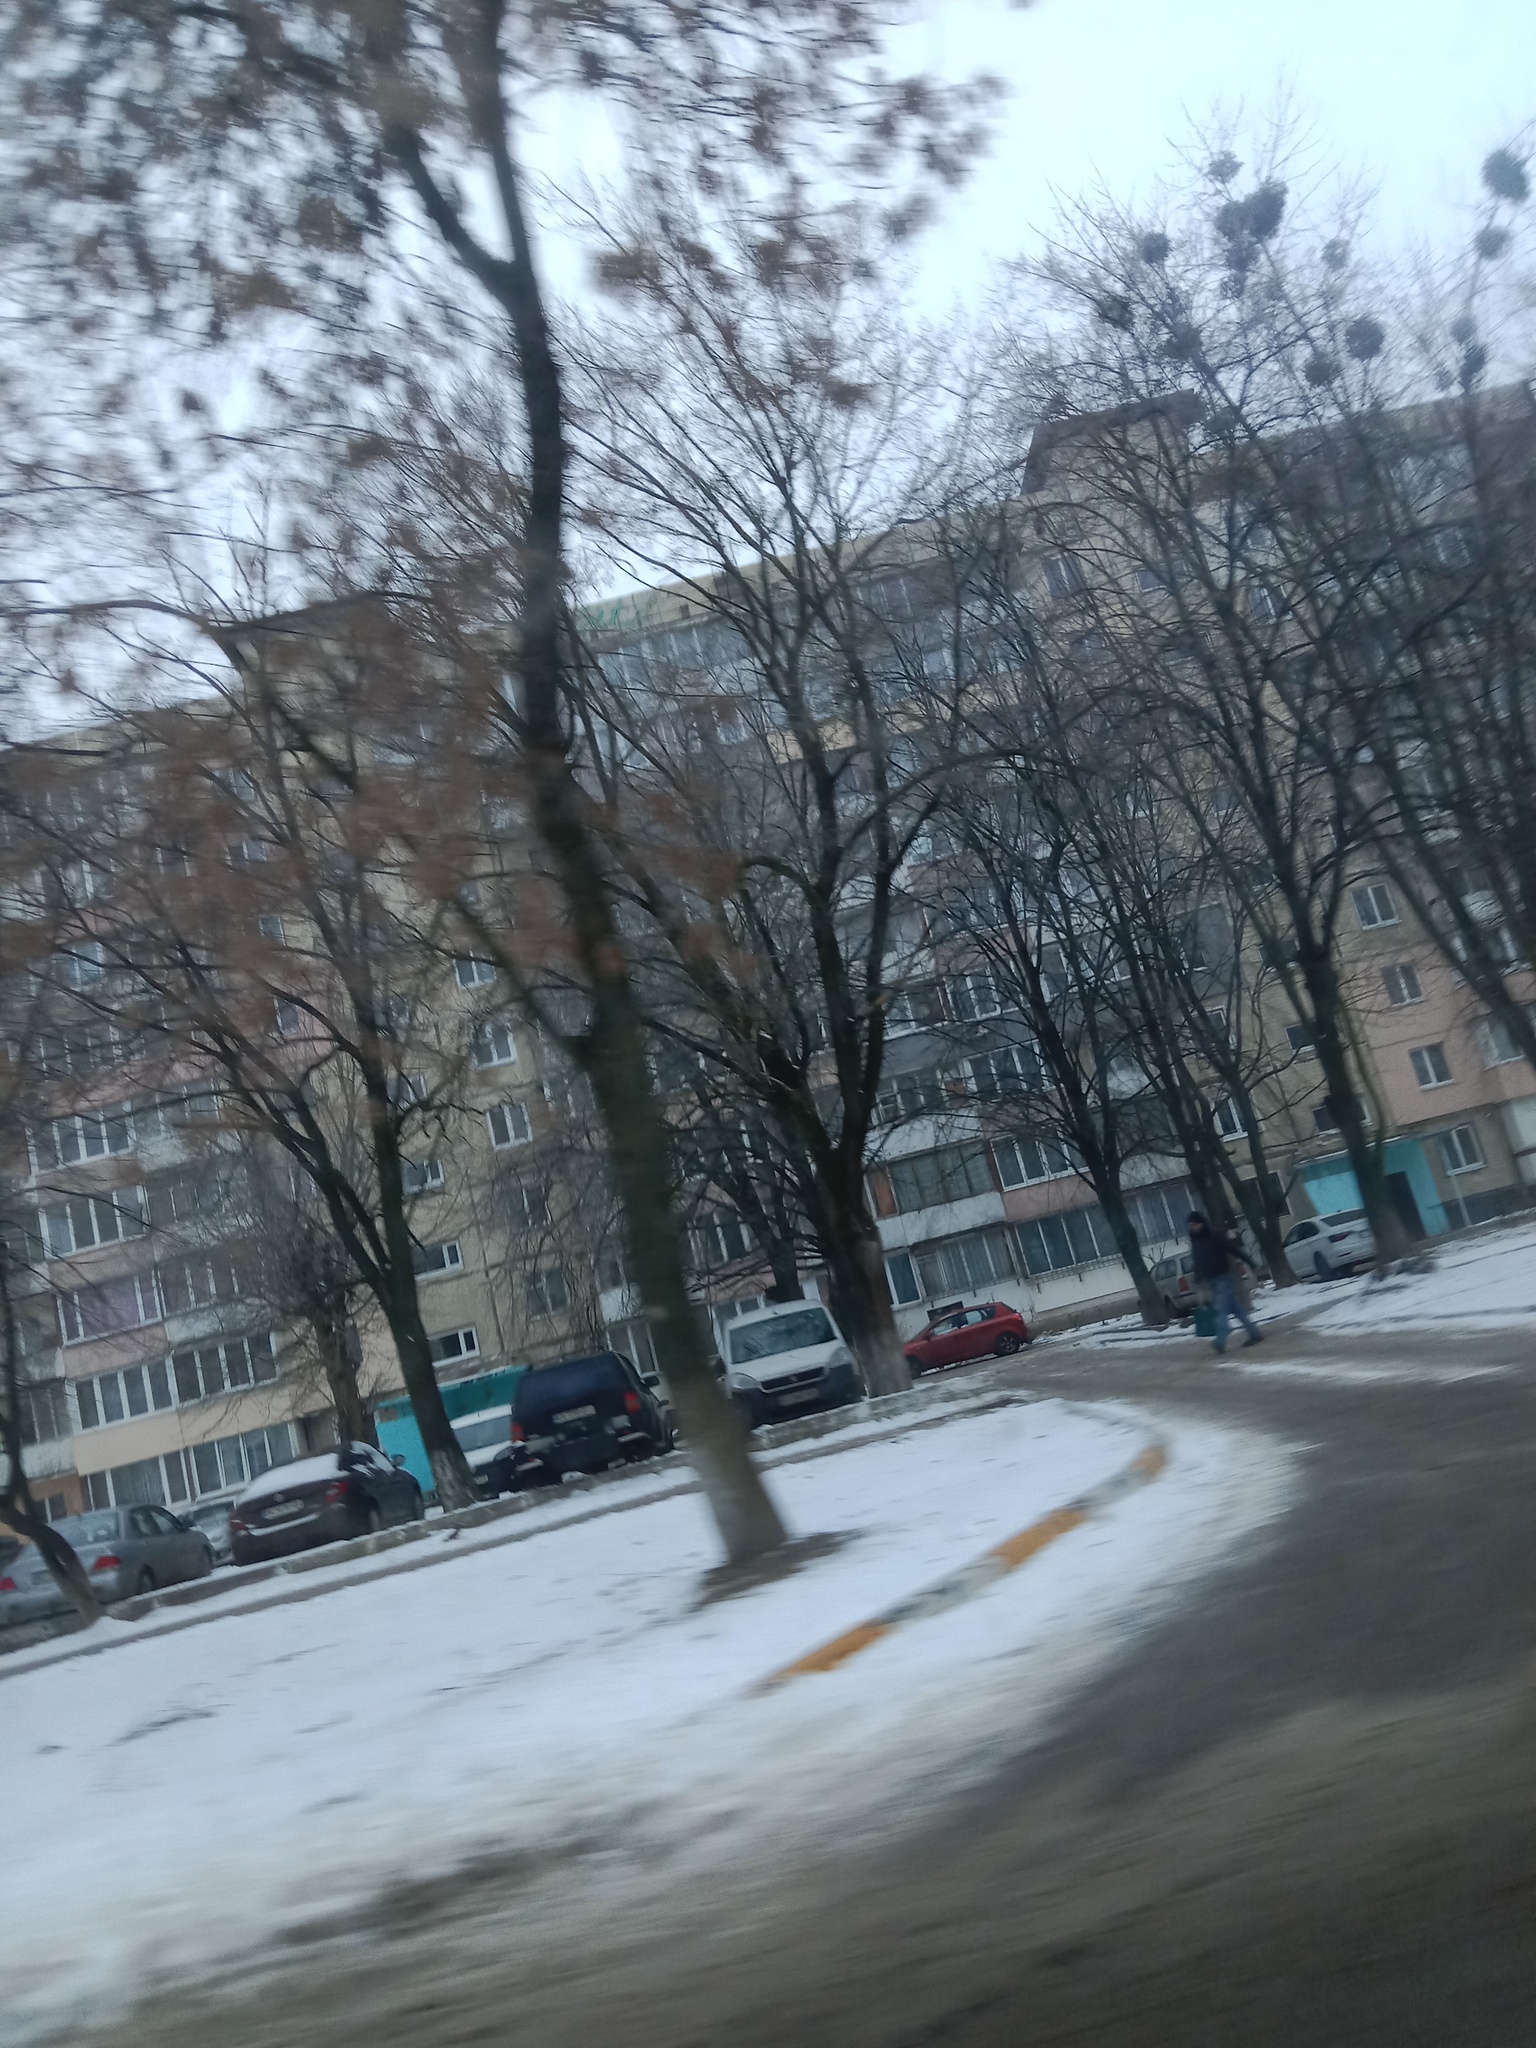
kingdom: Plantae
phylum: Tracheophyta
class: Magnoliopsida
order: Santalales
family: Viscaceae
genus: Viscum
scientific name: Viscum album
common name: Mistletoe
